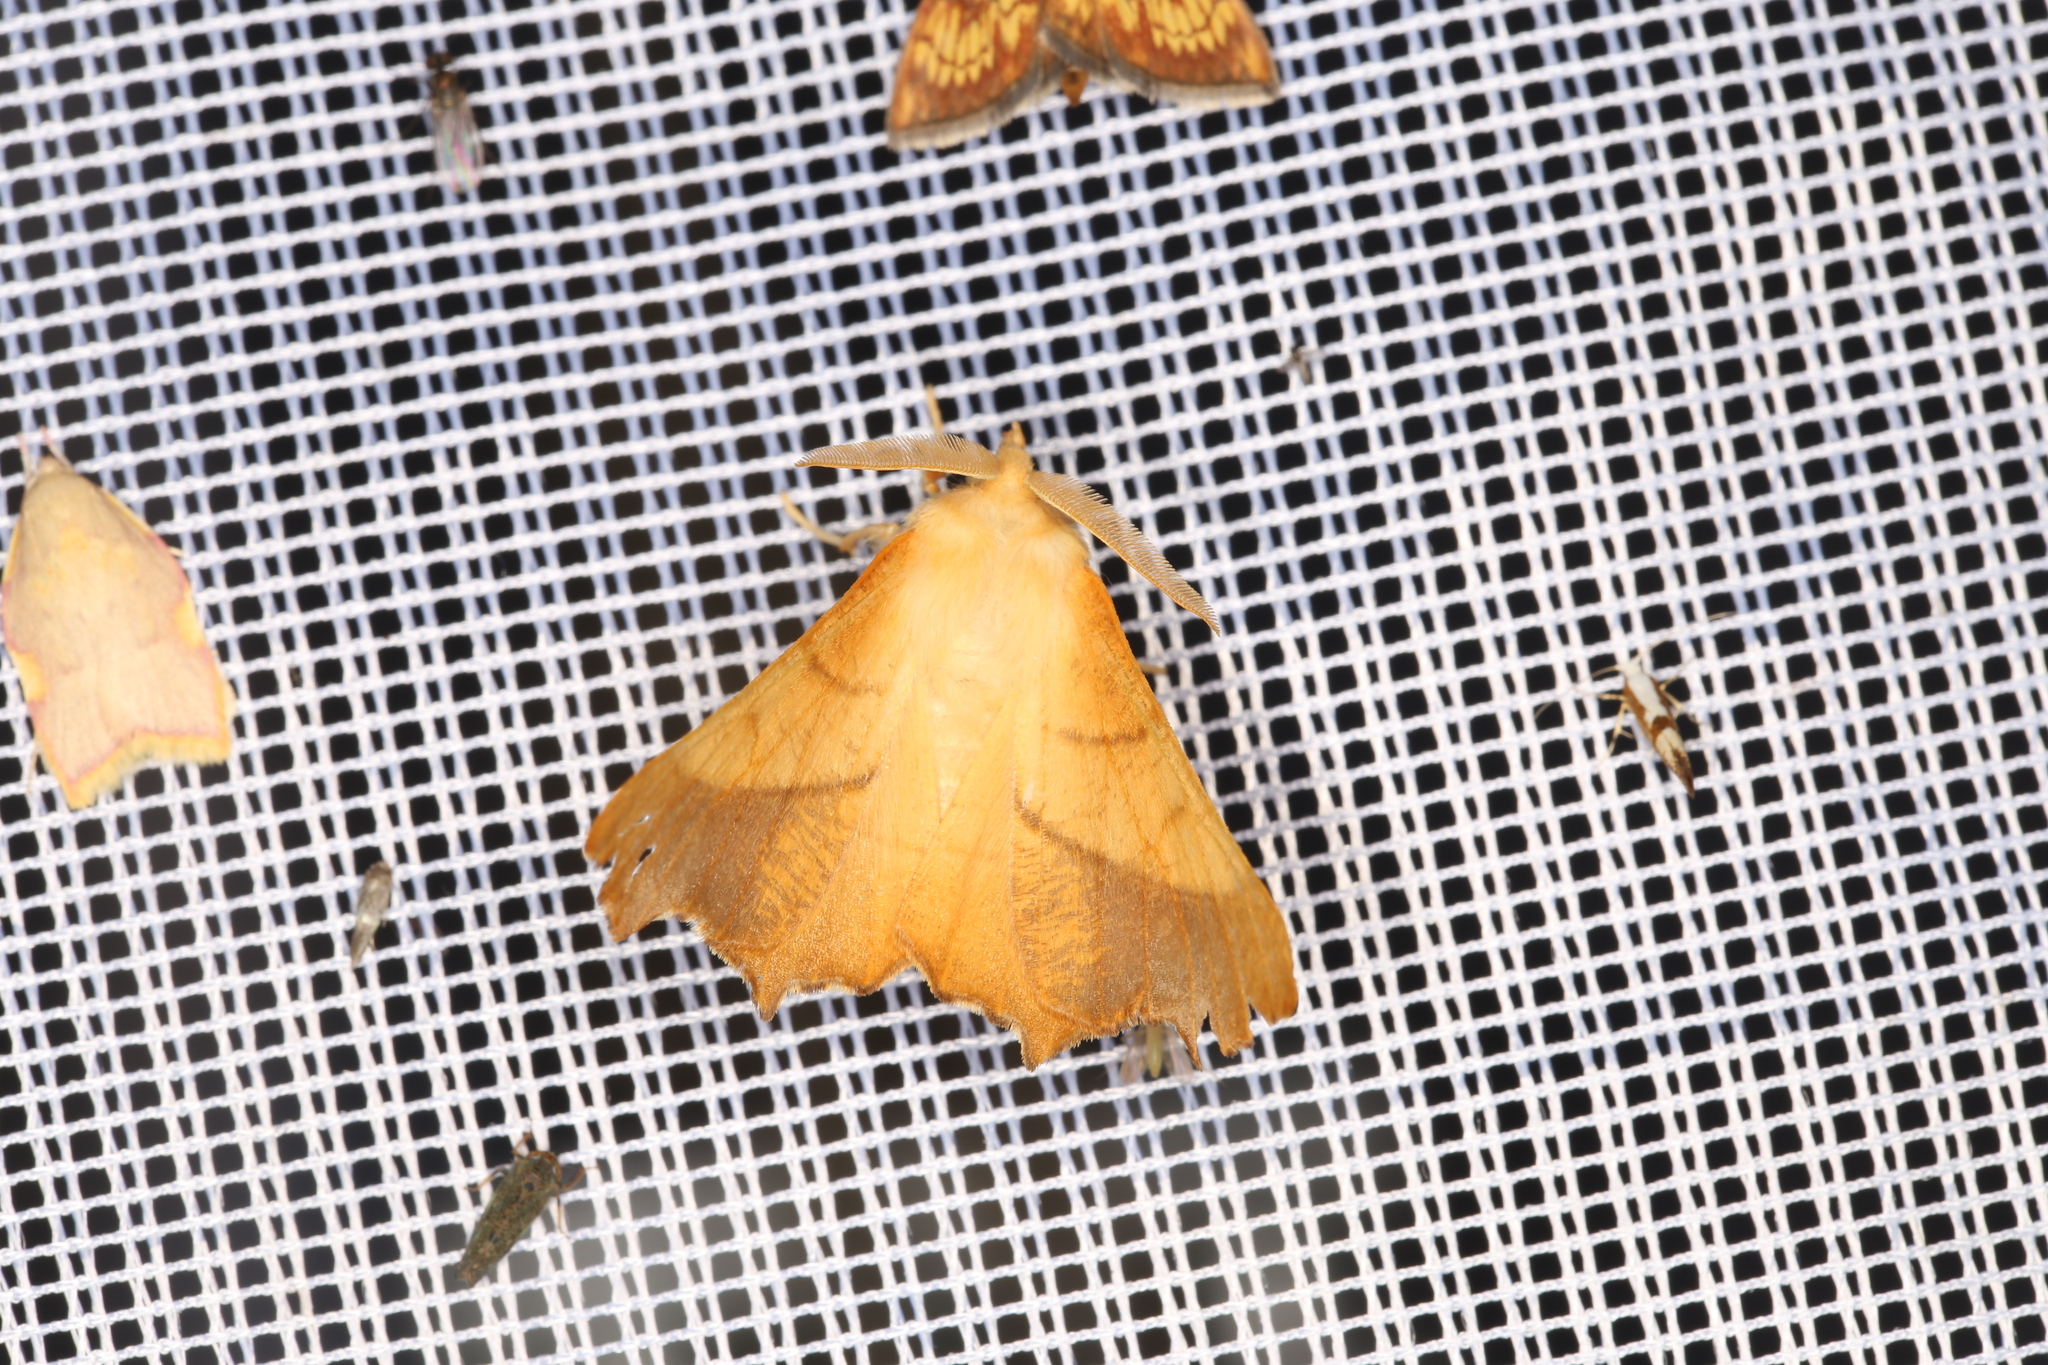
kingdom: Animalia
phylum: Arthropoda
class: Insecta
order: Lepidoptera
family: Geometridae
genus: Ennomos
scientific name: Ennomos fuscantaria
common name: Dusky thorn
